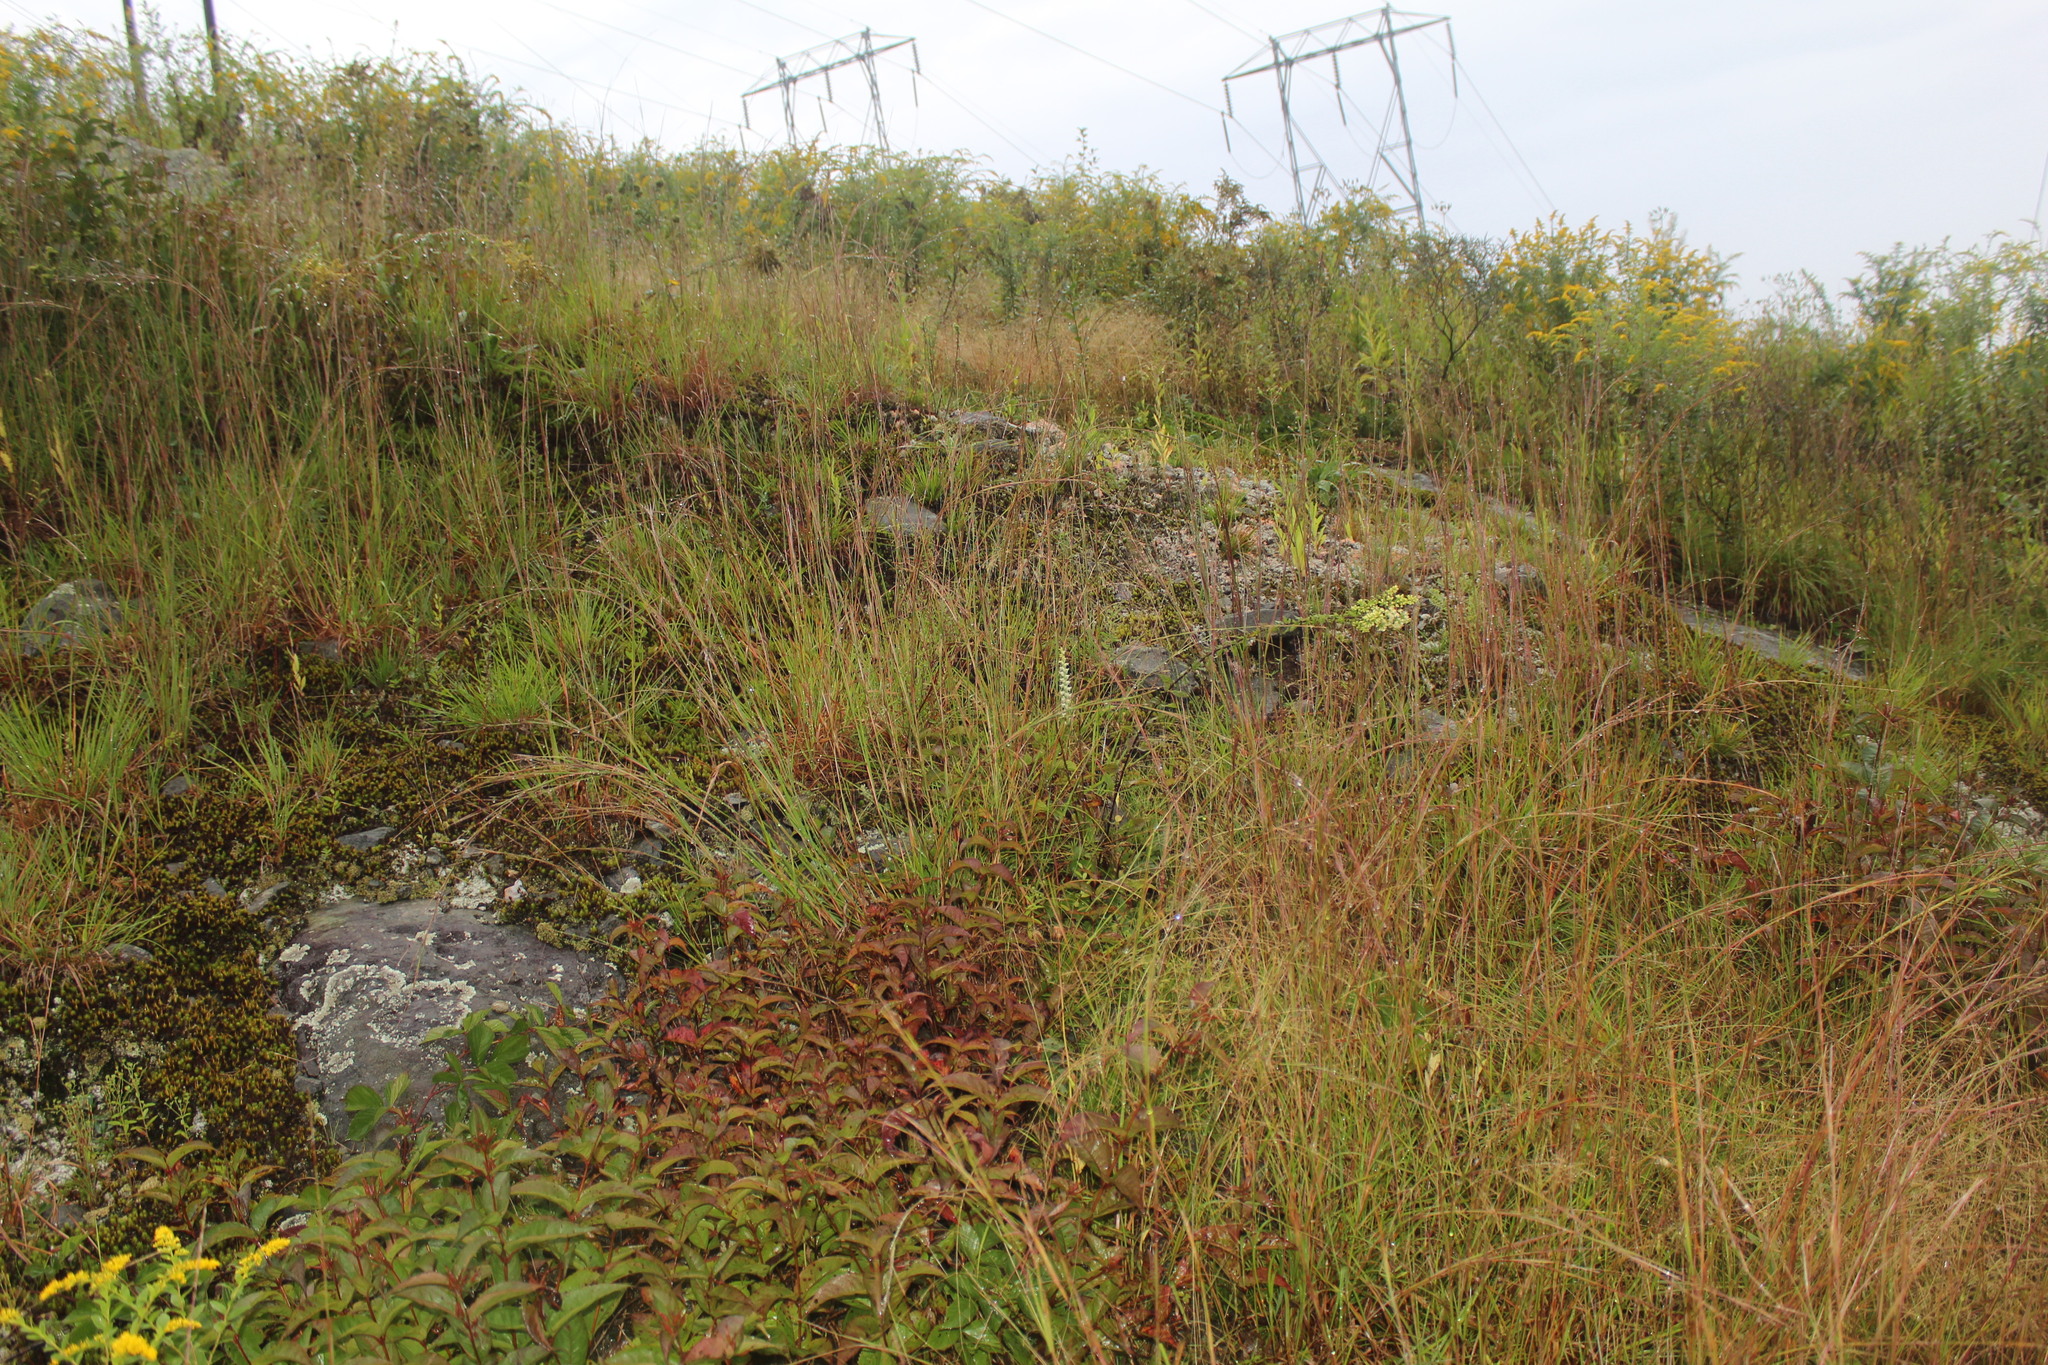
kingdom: Plantae
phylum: Tracheophyta
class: Liliopsida
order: Asparagales
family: Orchidaceae
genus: Spiranthes
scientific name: Spiranthes ochroleuca
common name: Yellow ladies'-tresses
